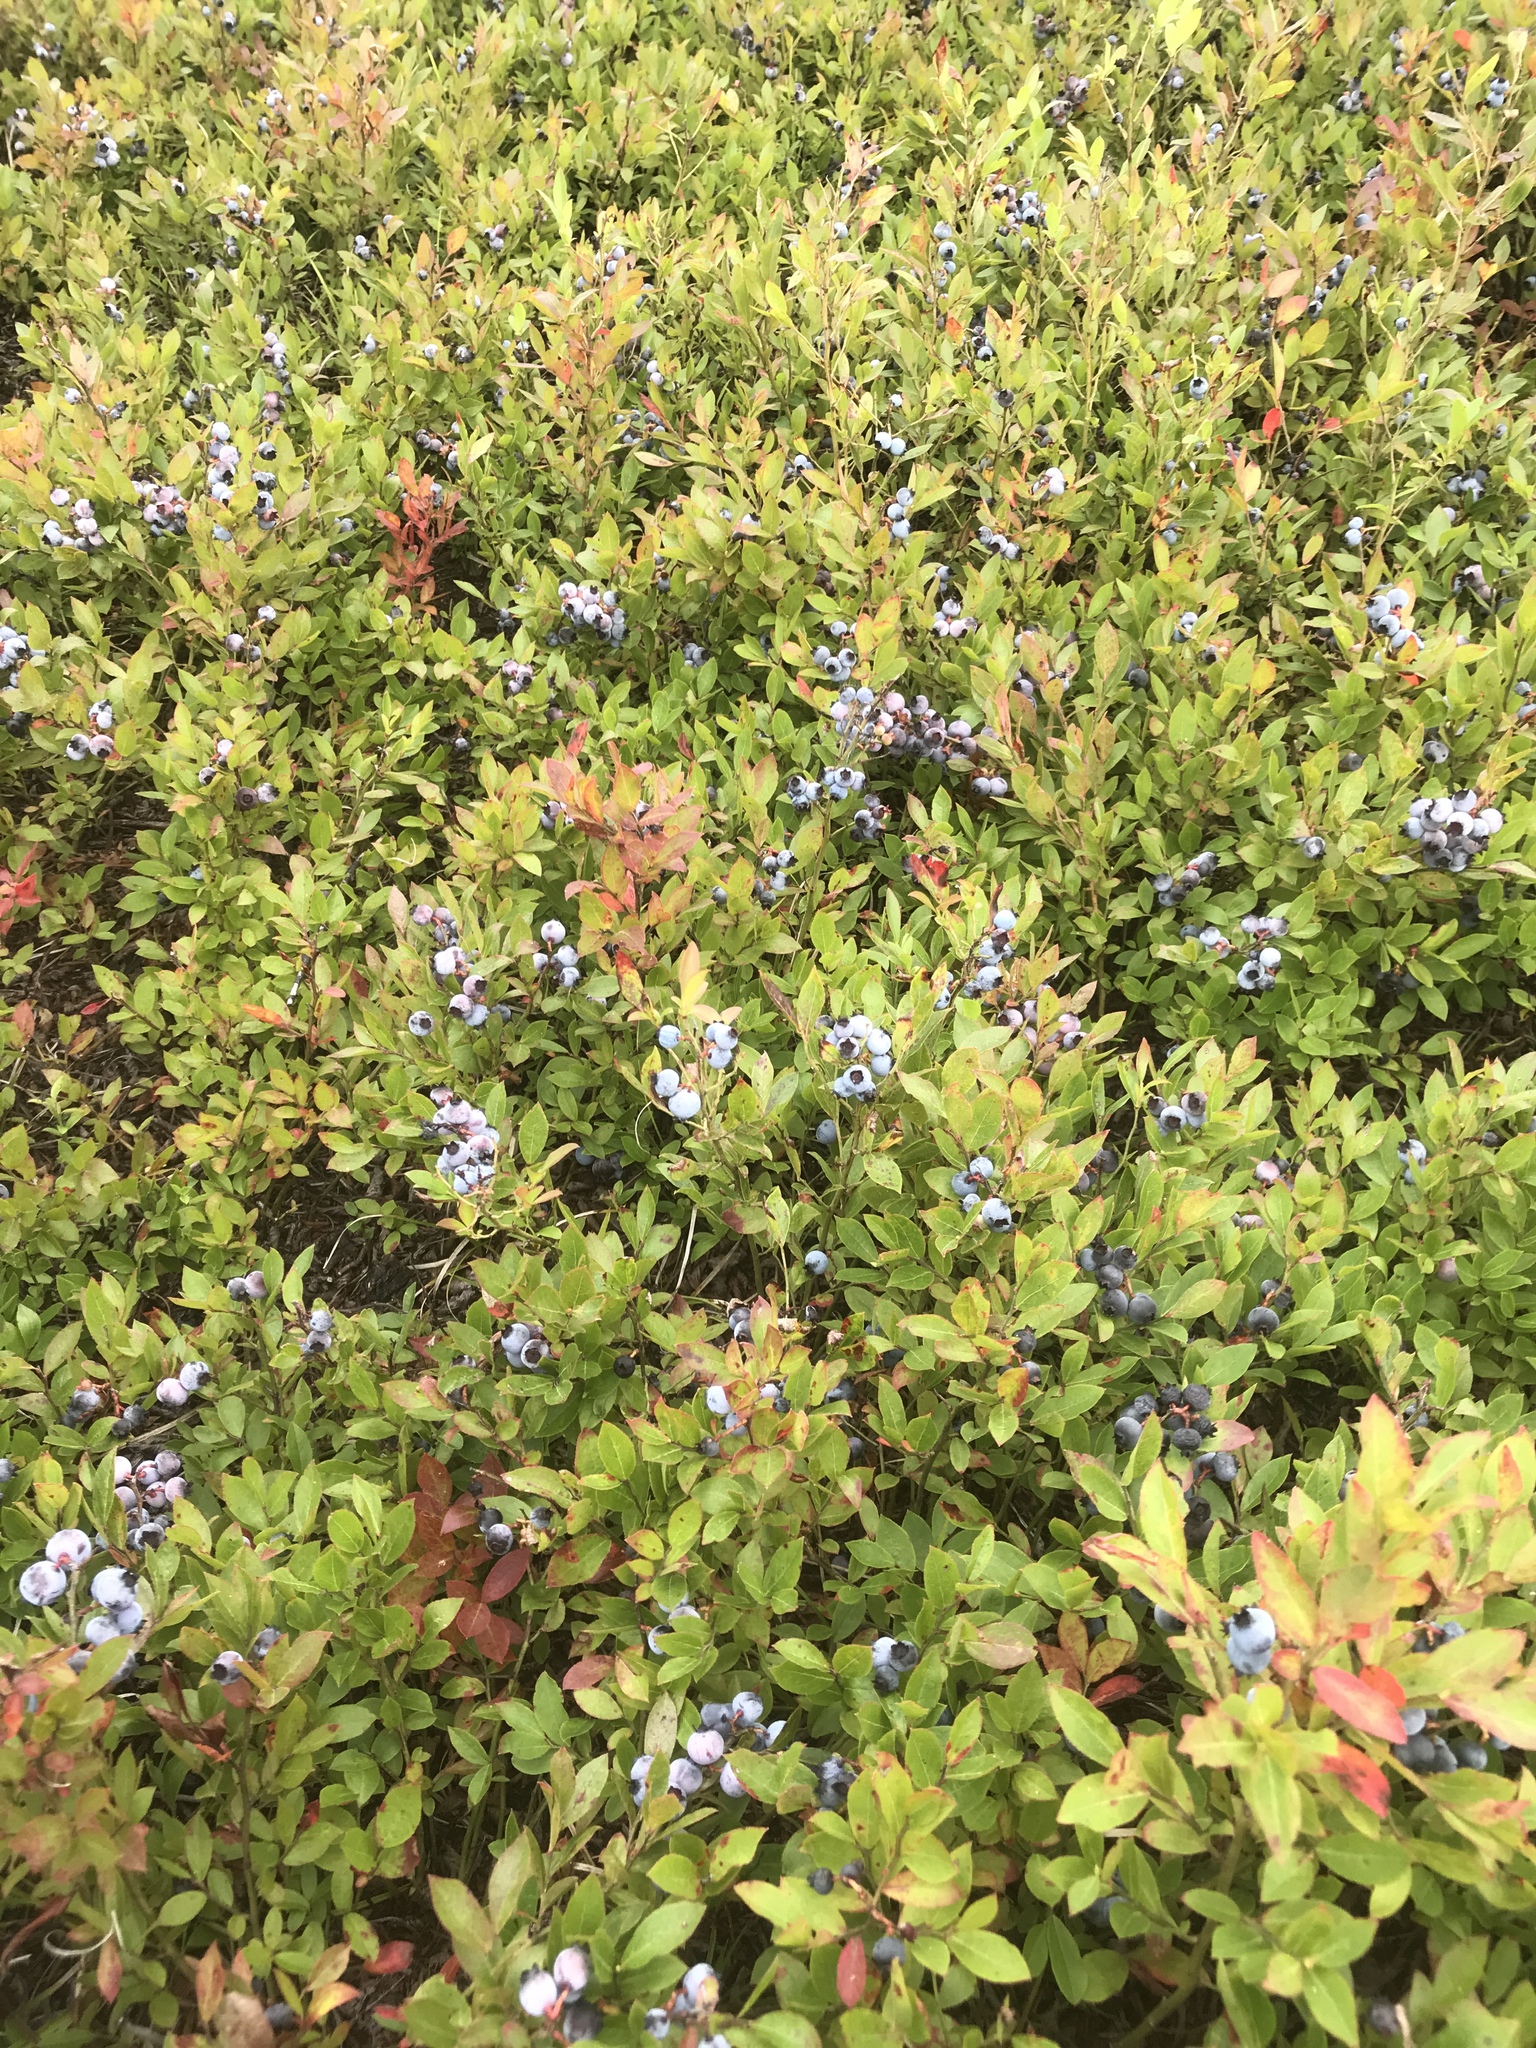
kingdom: Plantae
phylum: Tracheophyta
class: Magnoliopsida
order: Ericales
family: Ericaceae
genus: Vaccinium
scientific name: Vaccinium angustifolium
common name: Early lowbush blueberry
